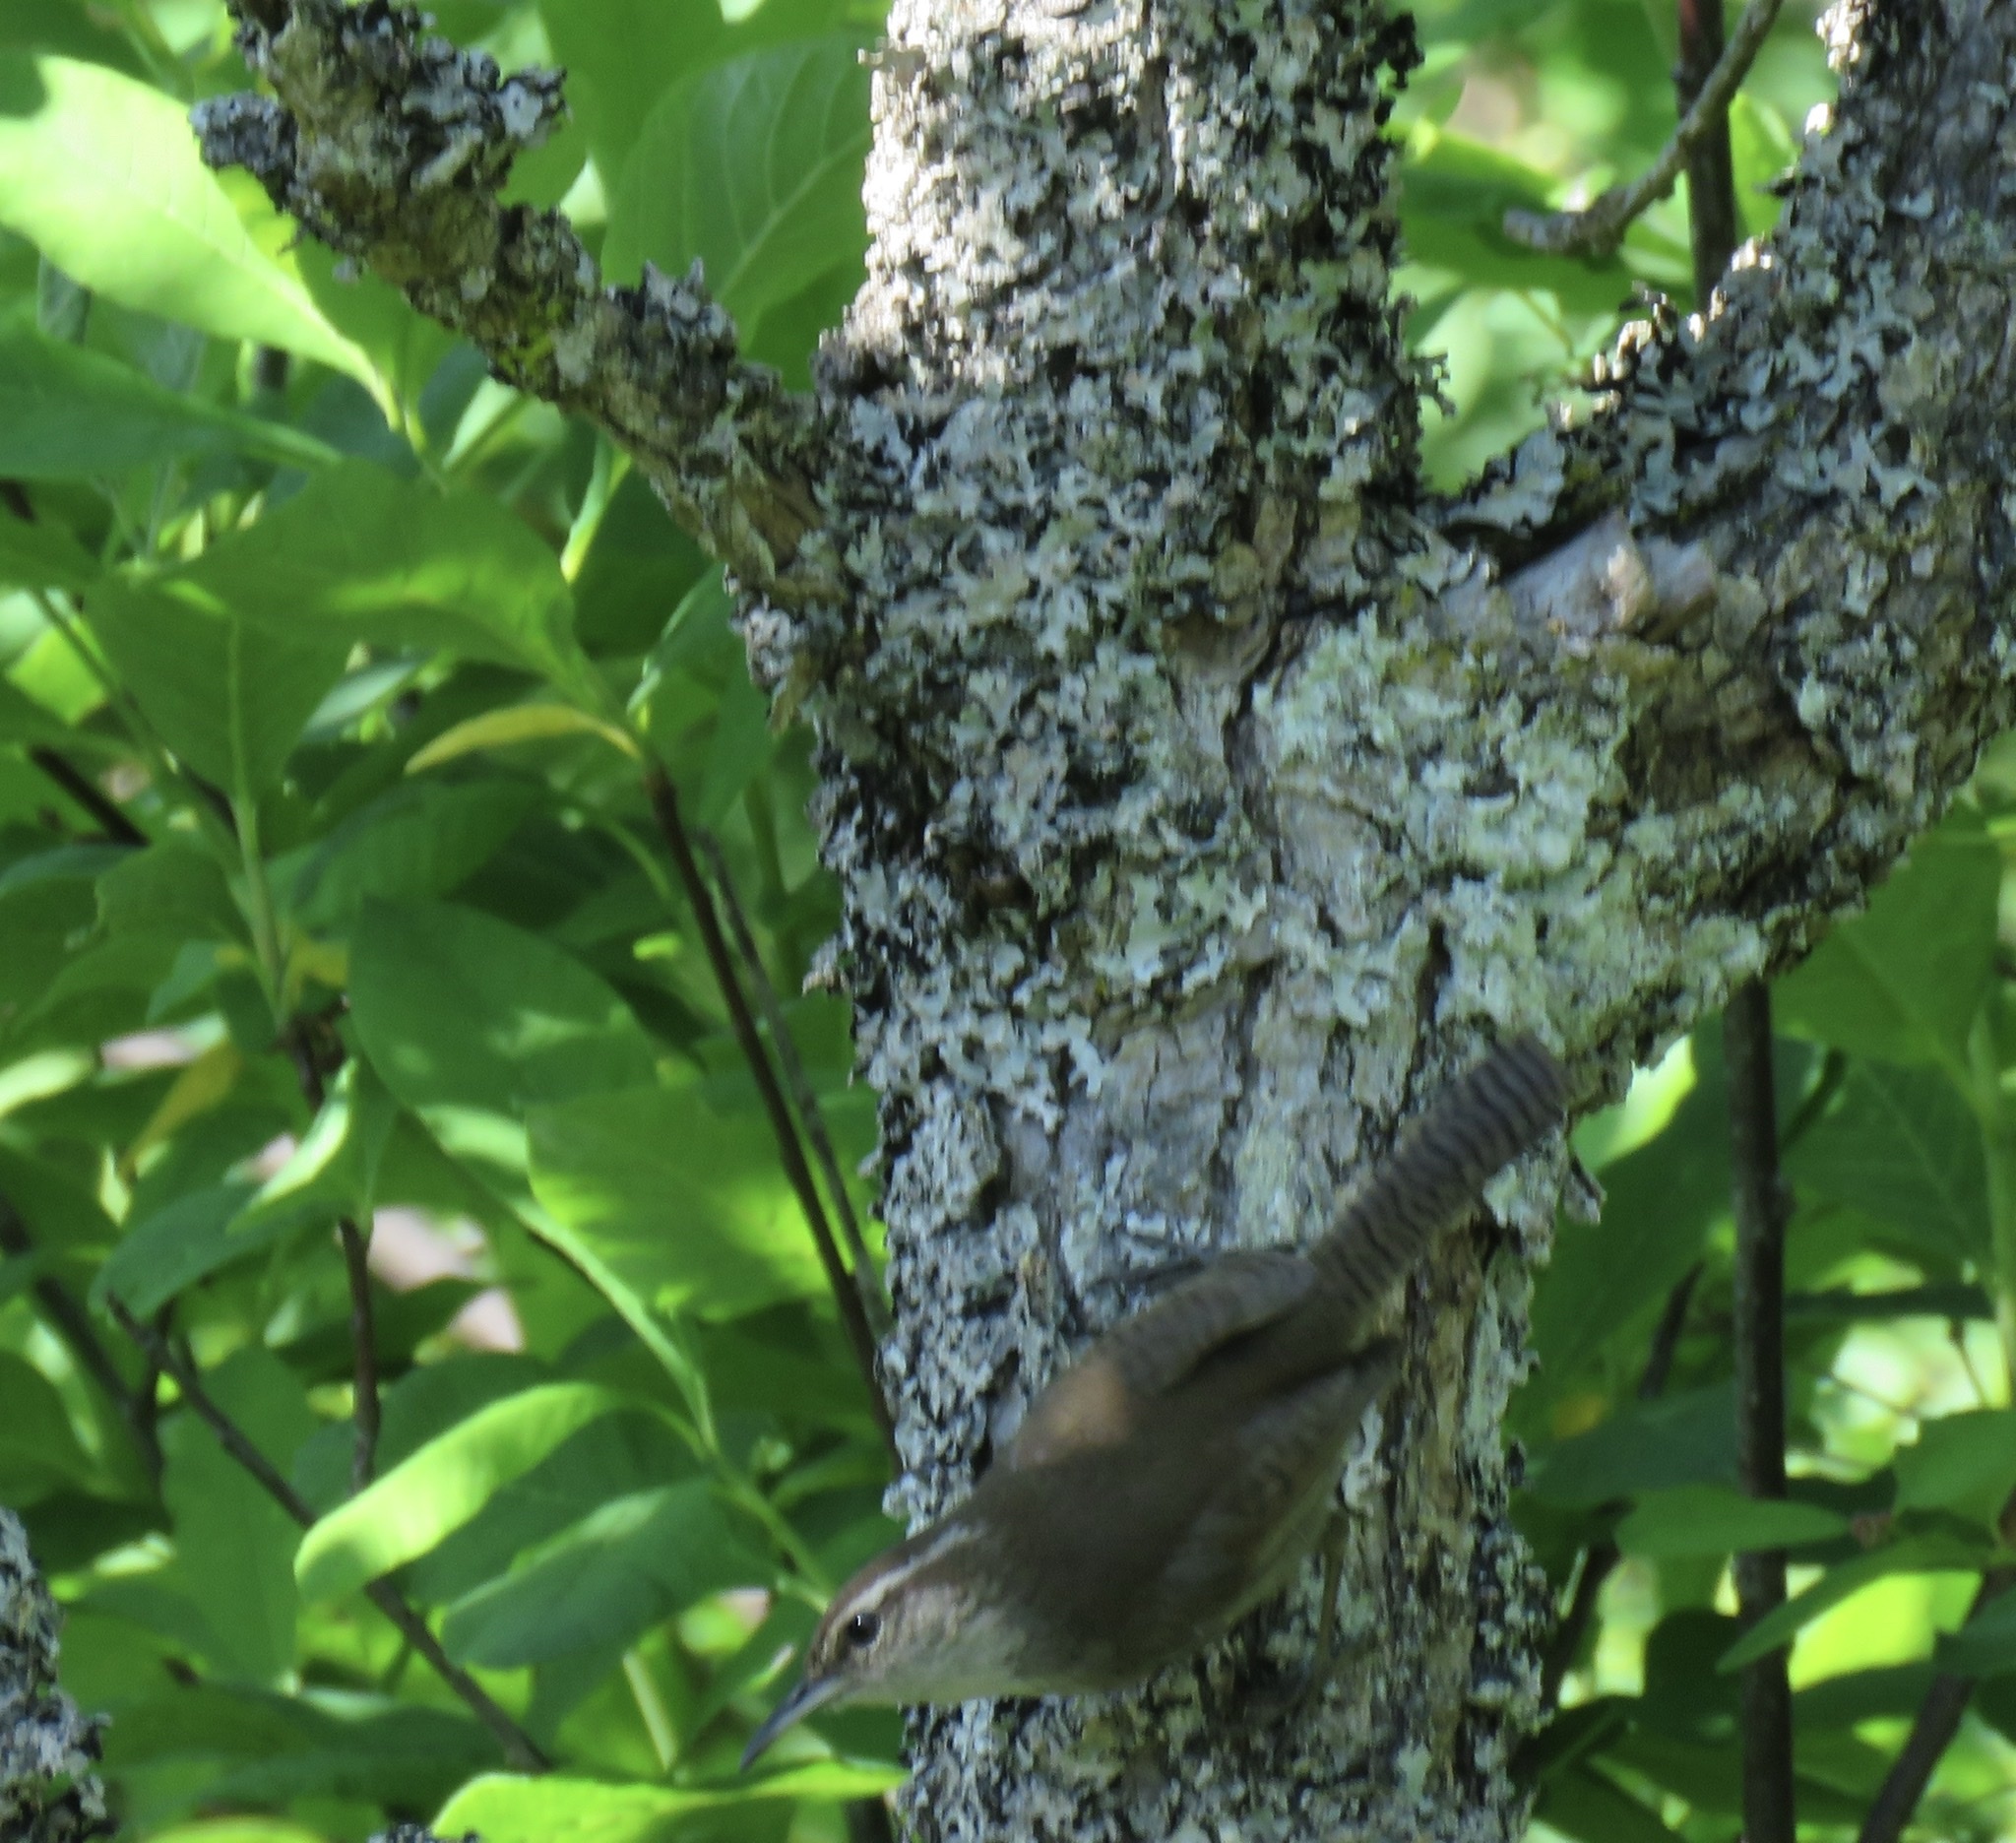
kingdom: Animalia
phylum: Chordata
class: Aves
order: Passeriformes
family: Troglodytidae
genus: Thryomanes
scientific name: Thryomanes bewickii
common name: Bewick's wren
